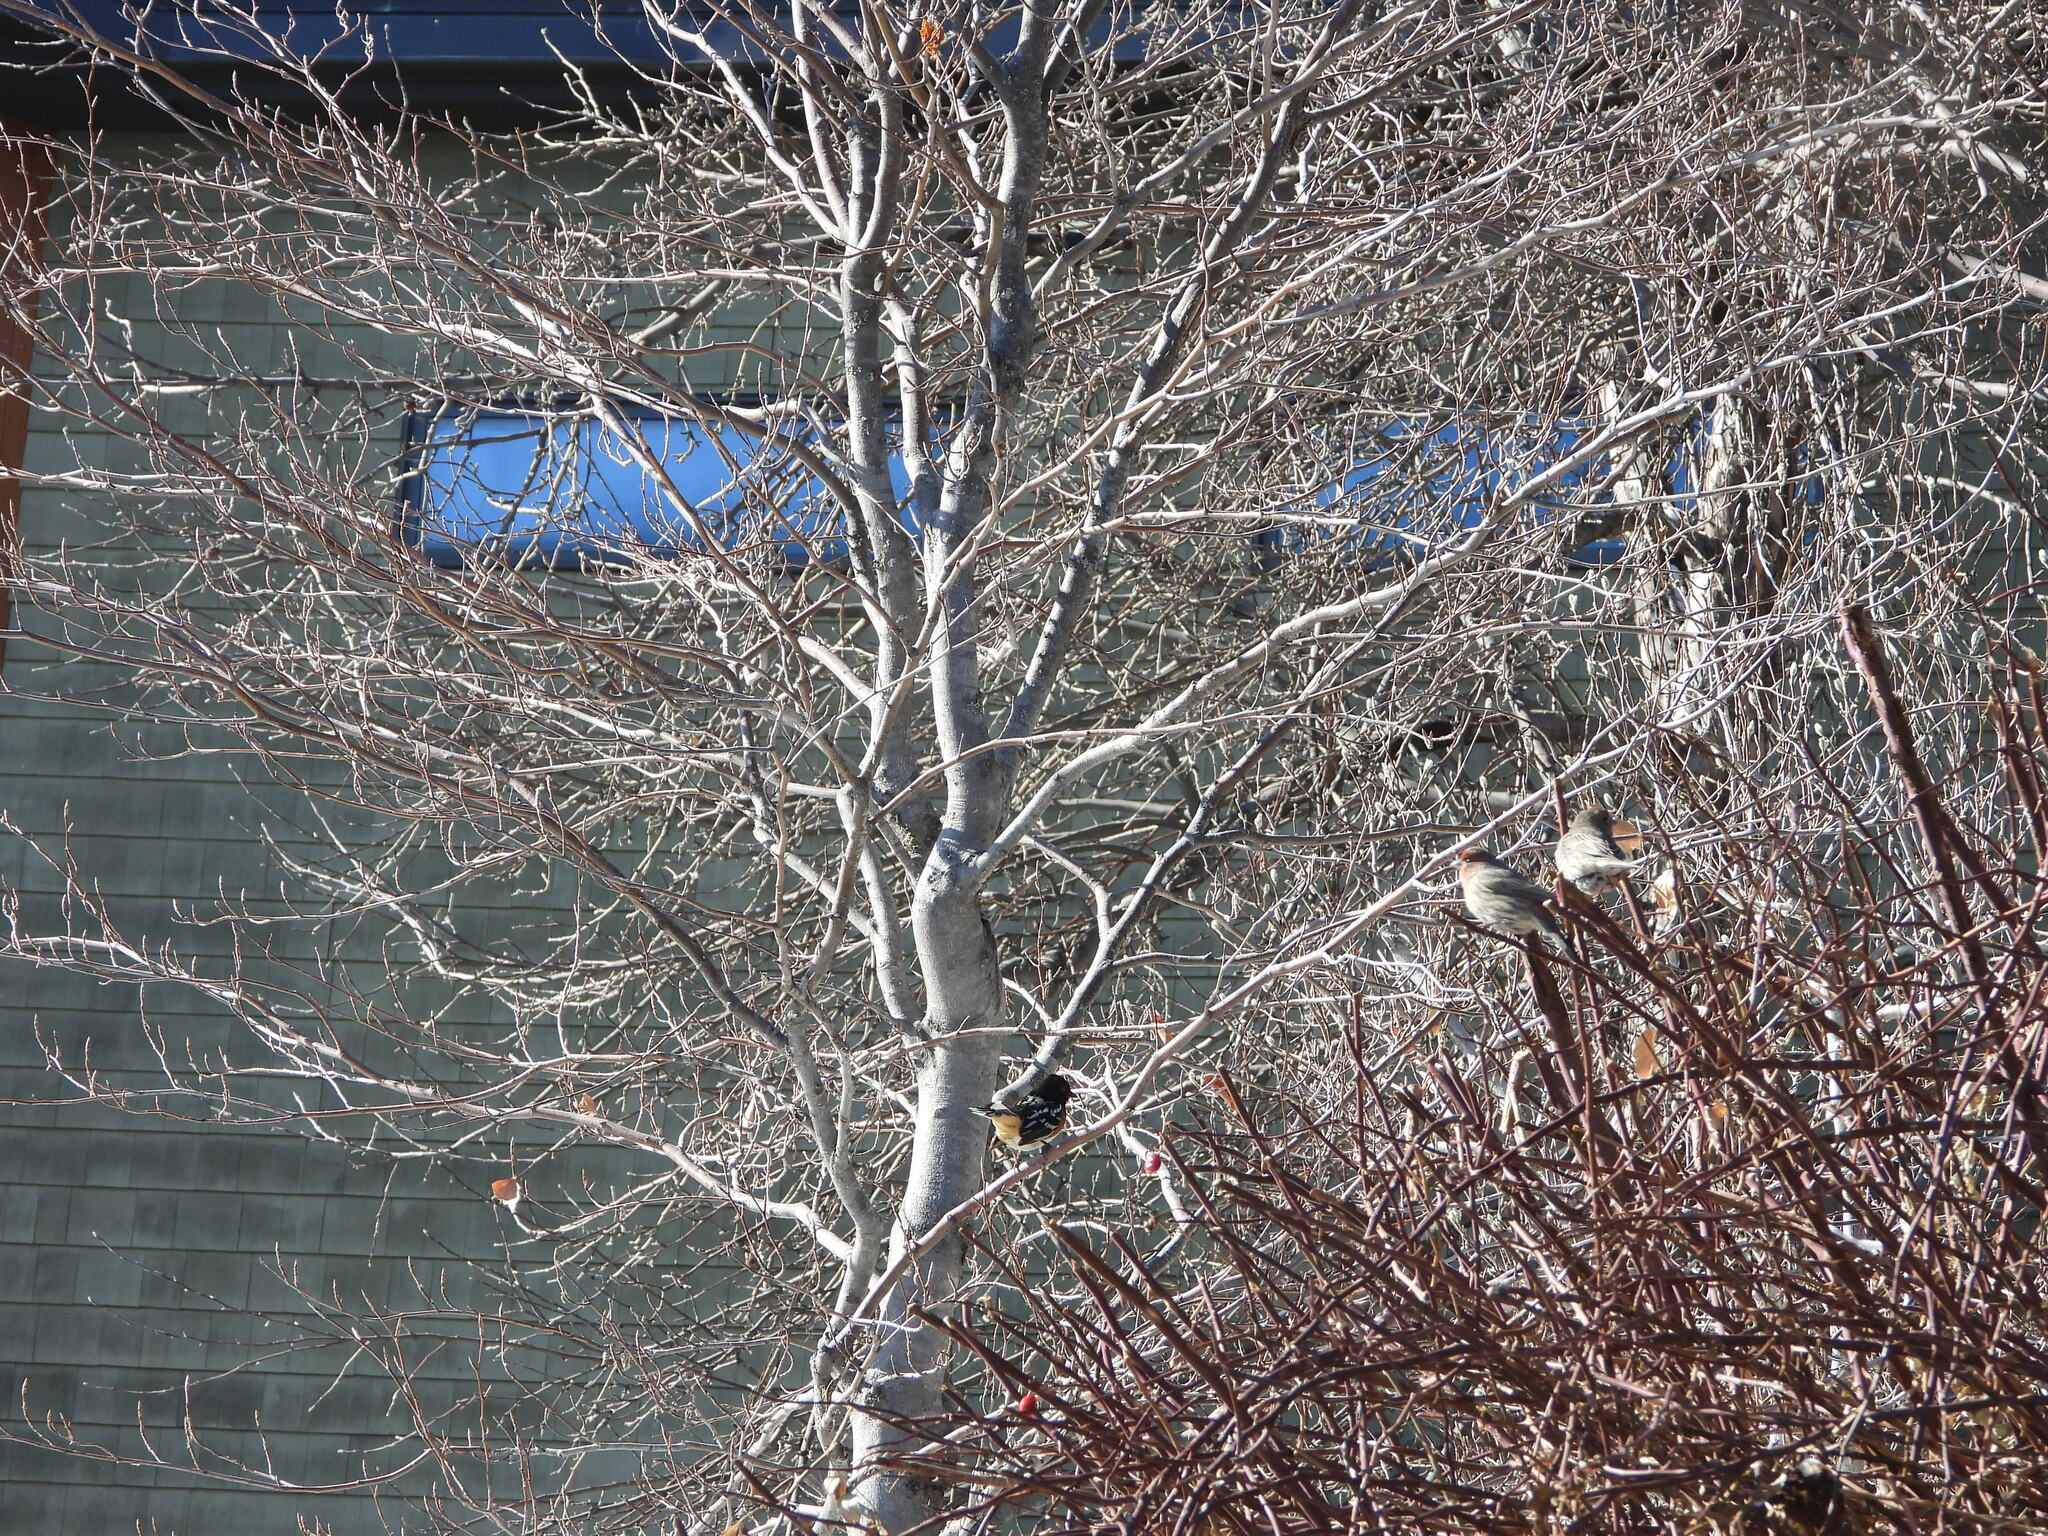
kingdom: Animalia
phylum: Chordata
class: Aves
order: Passeriformes
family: Passerellidae
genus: Pipilo
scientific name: Pipilo maculatus
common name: Spotted towhee
